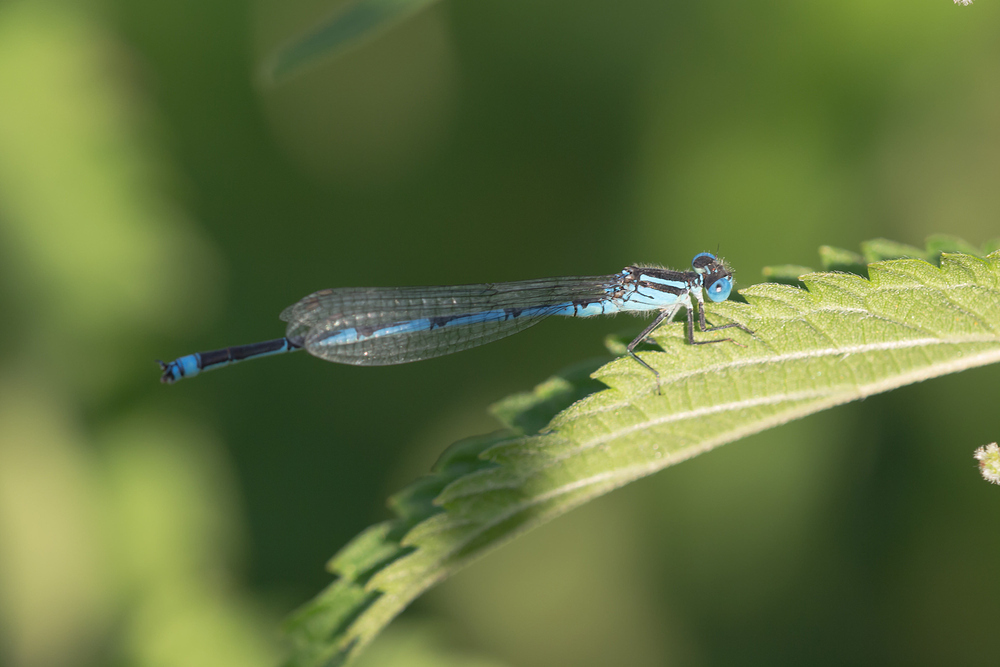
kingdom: Animalia
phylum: Arthropoda
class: Insecta
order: Odonata
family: Coenagrionidae
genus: Erythromma
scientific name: Erythromma lindenii
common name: Blue-eye
